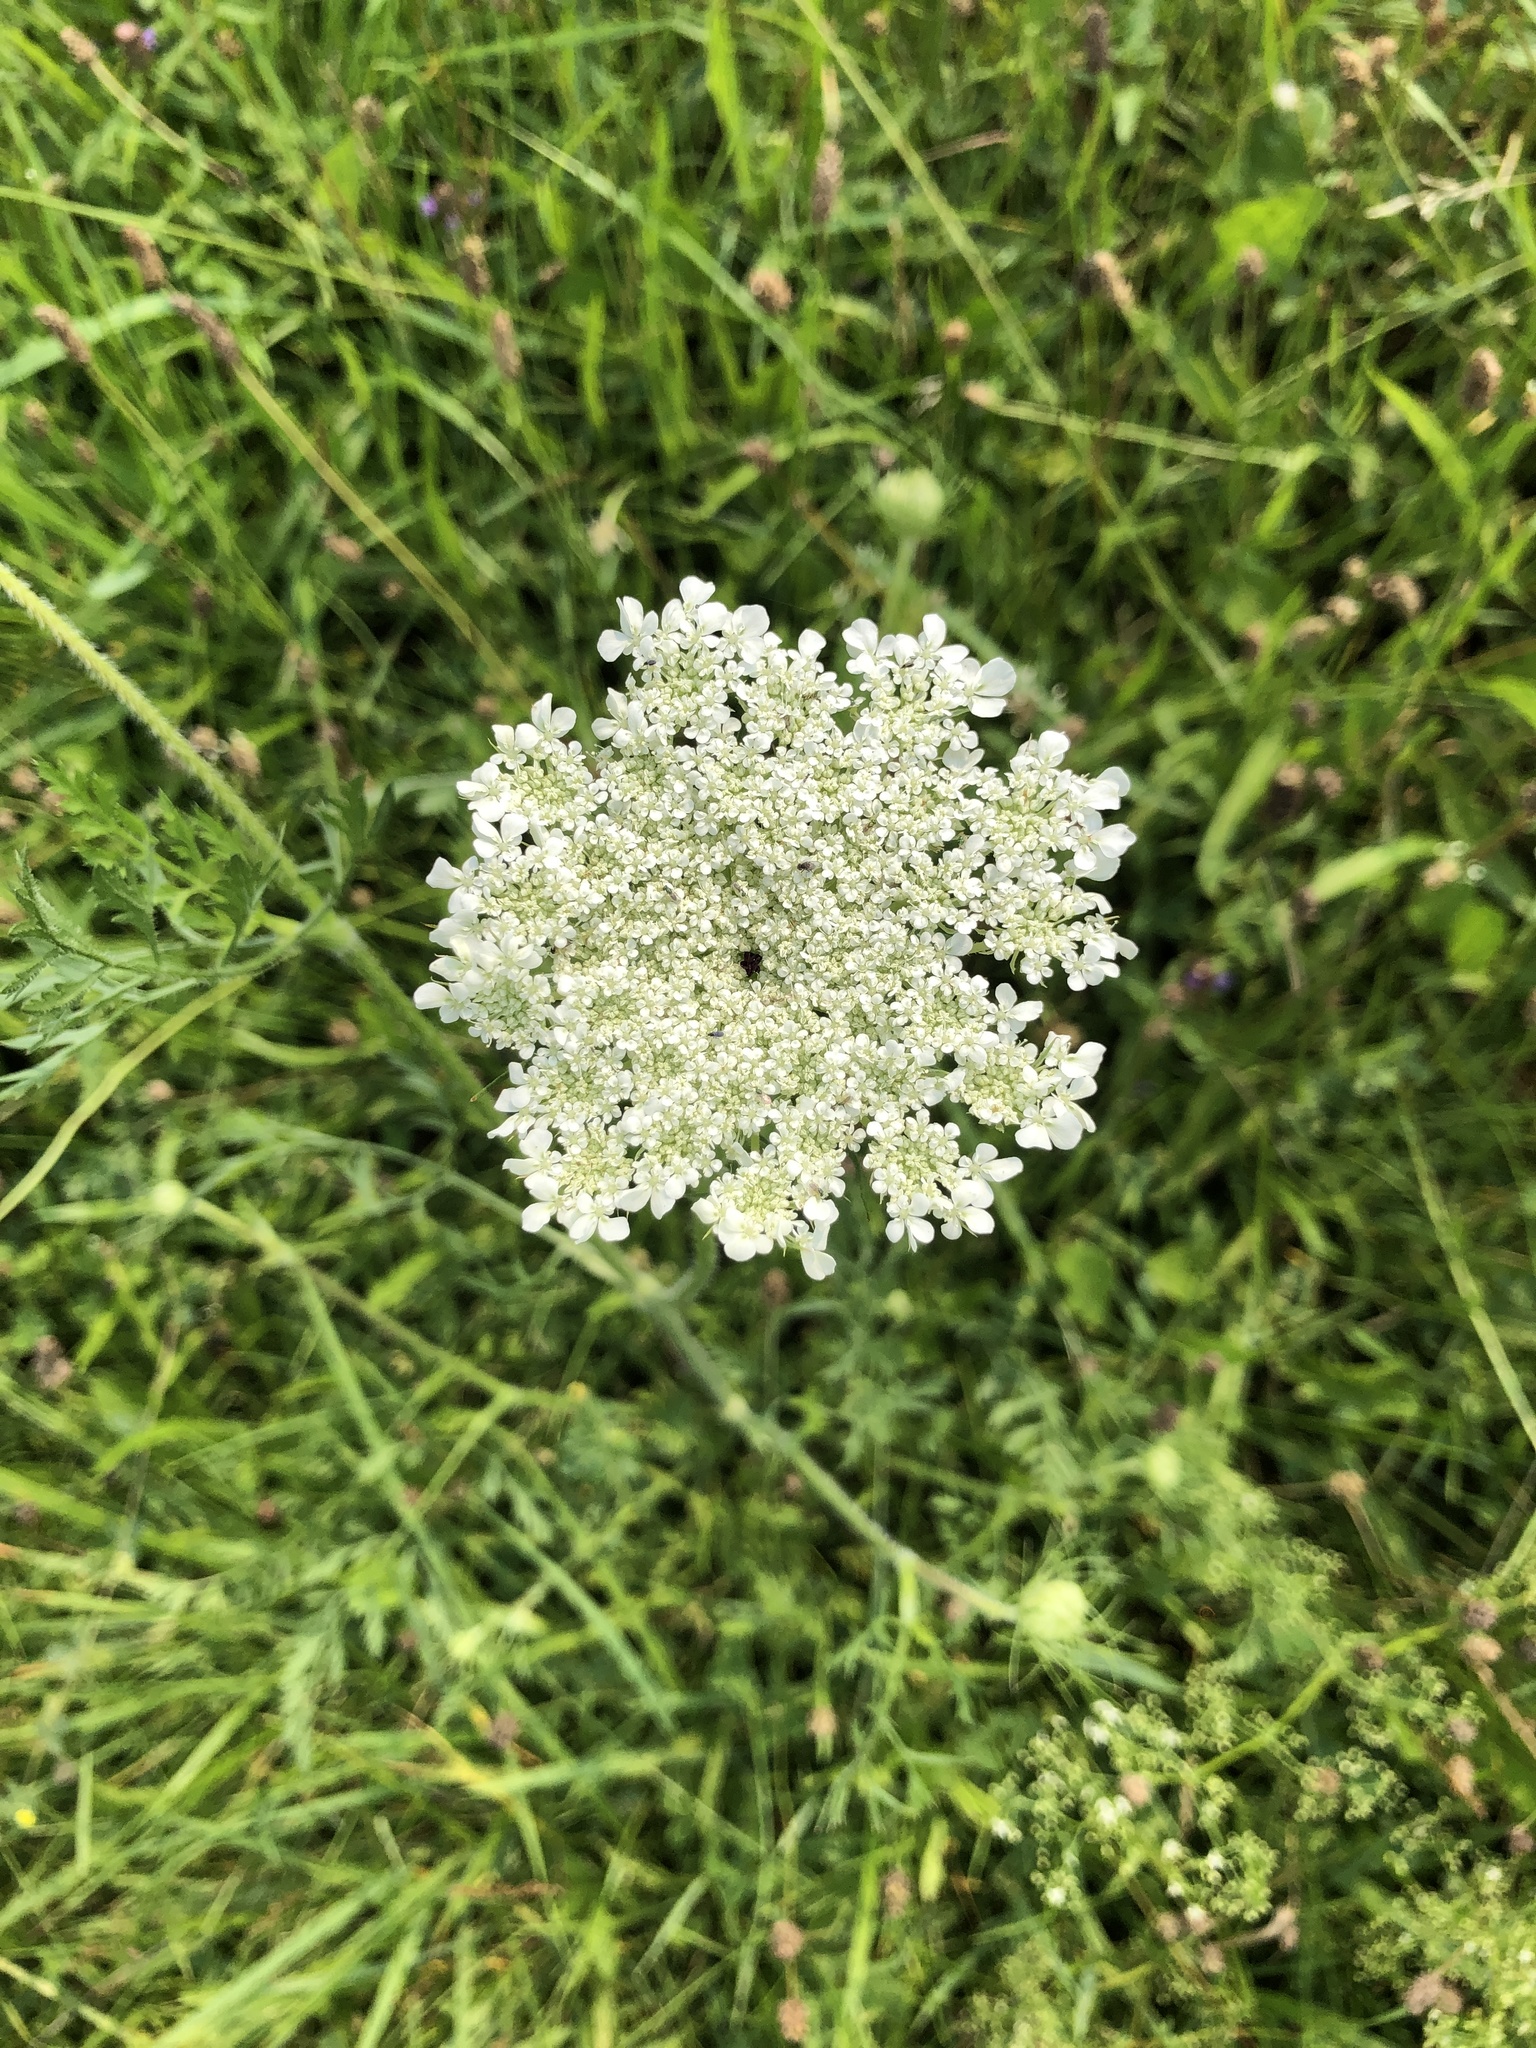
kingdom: Plantae
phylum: Tracheophyta
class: Magnoliopsida
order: Apiales
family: Apiaceae
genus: Daucus
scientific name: Daucus carota
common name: Wild carrot
